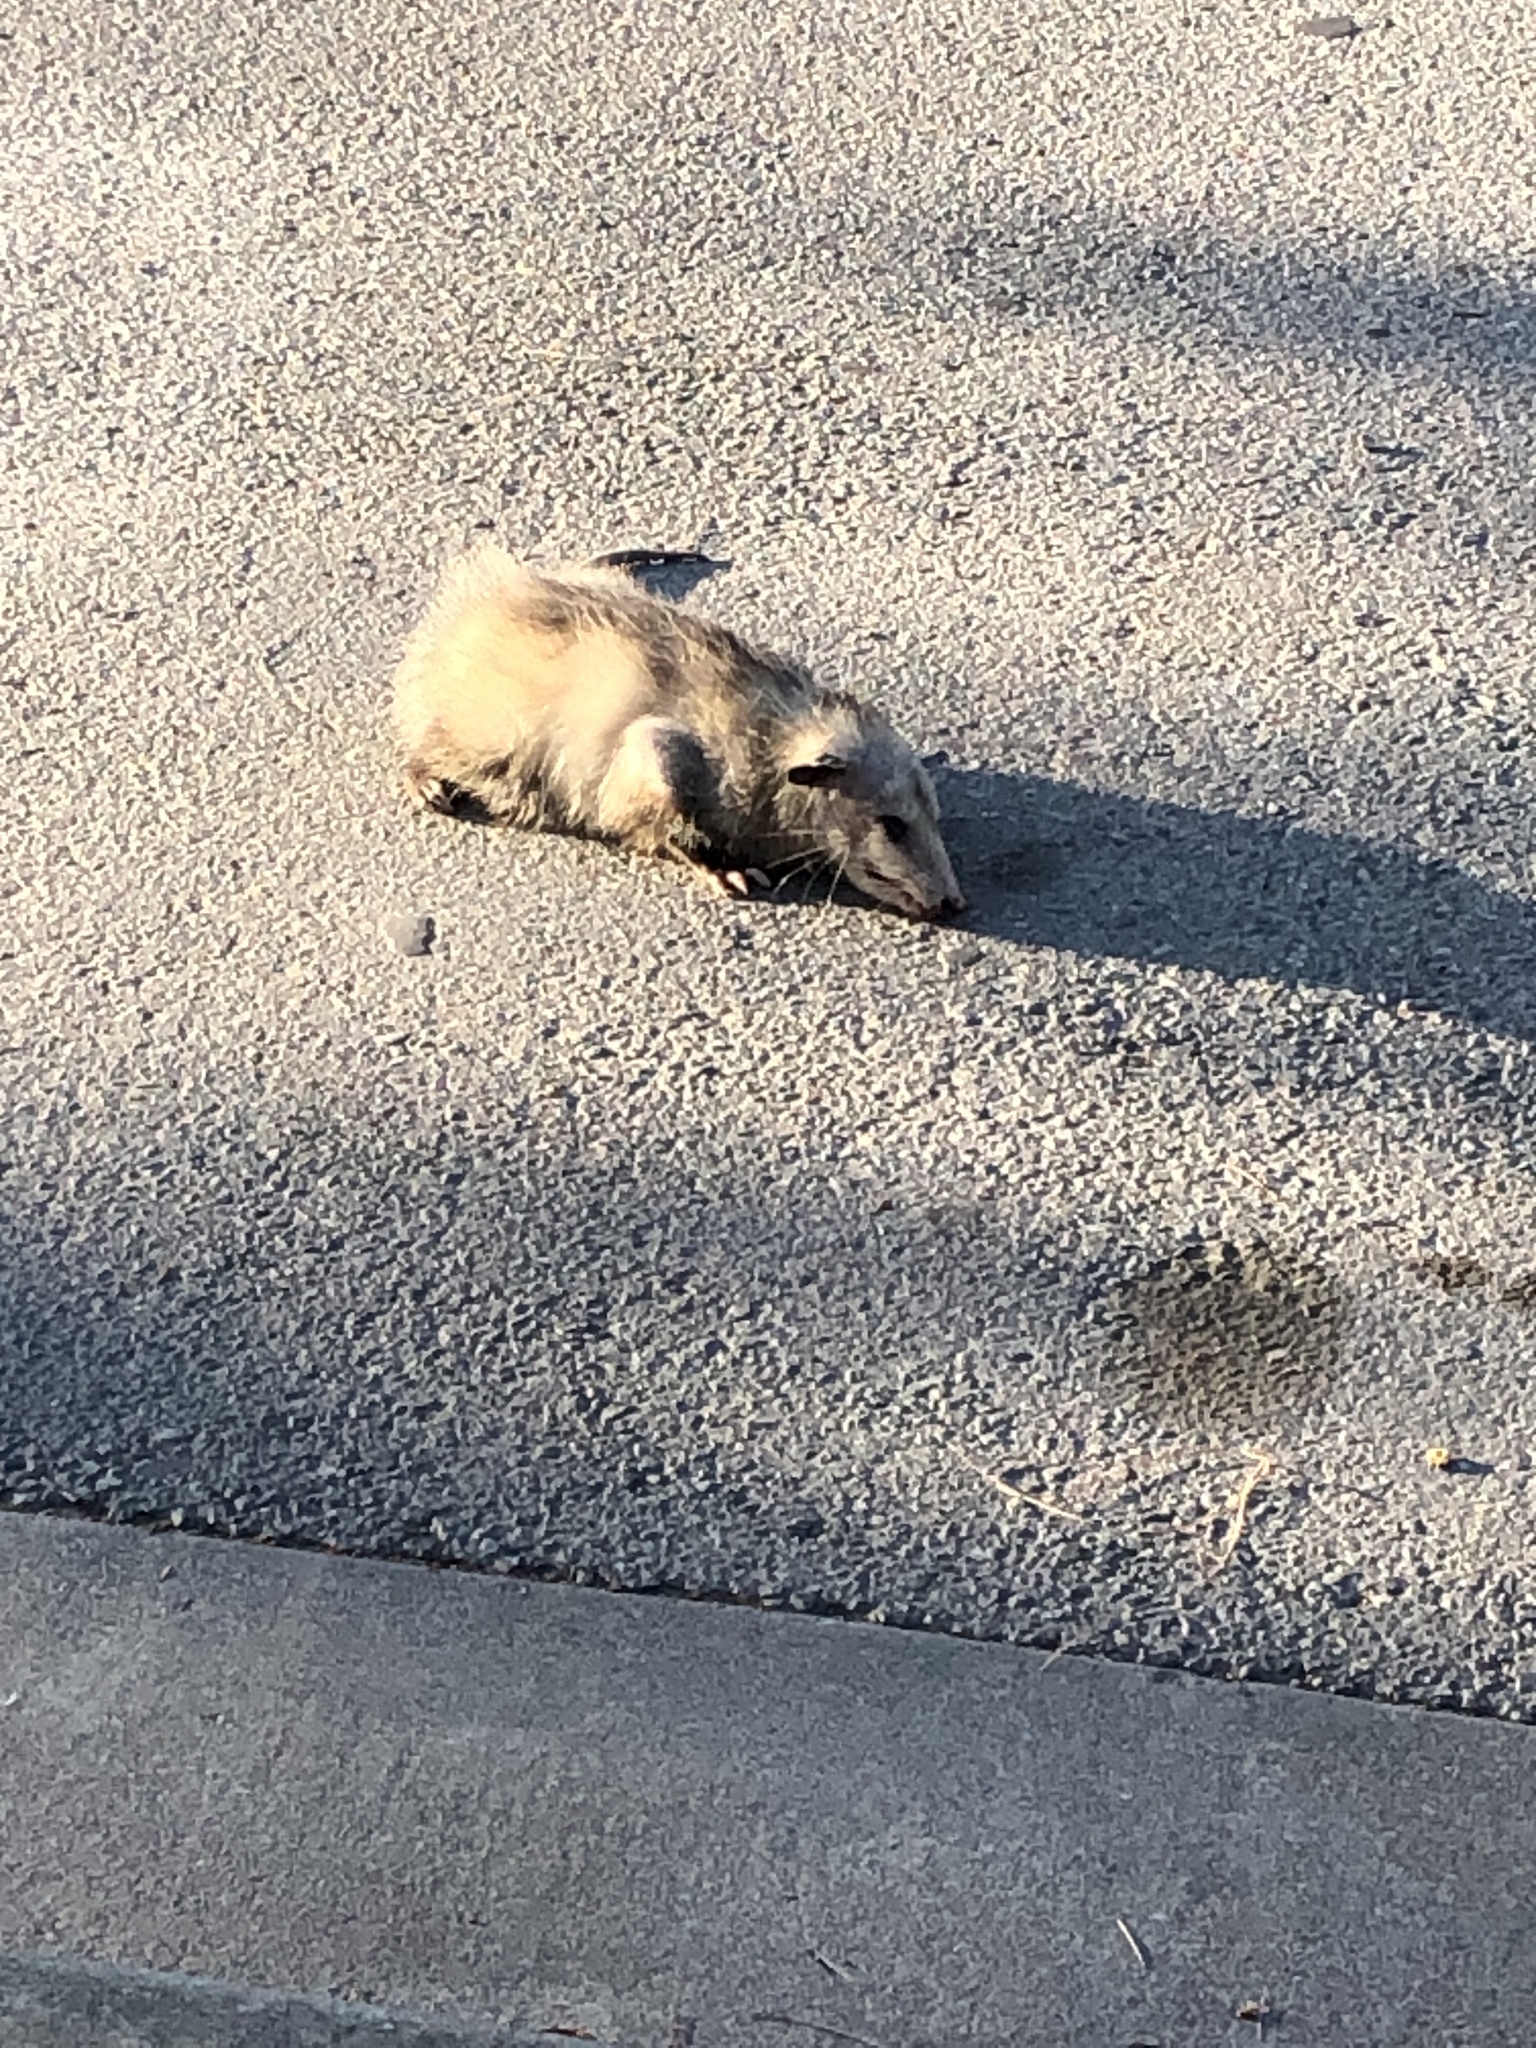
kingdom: Animalia
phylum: Chordata
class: Mammalia
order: Didelphimorphia
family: Didelphidae
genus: Didelphis
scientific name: Didelphis virginiana
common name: Virginia opossum
